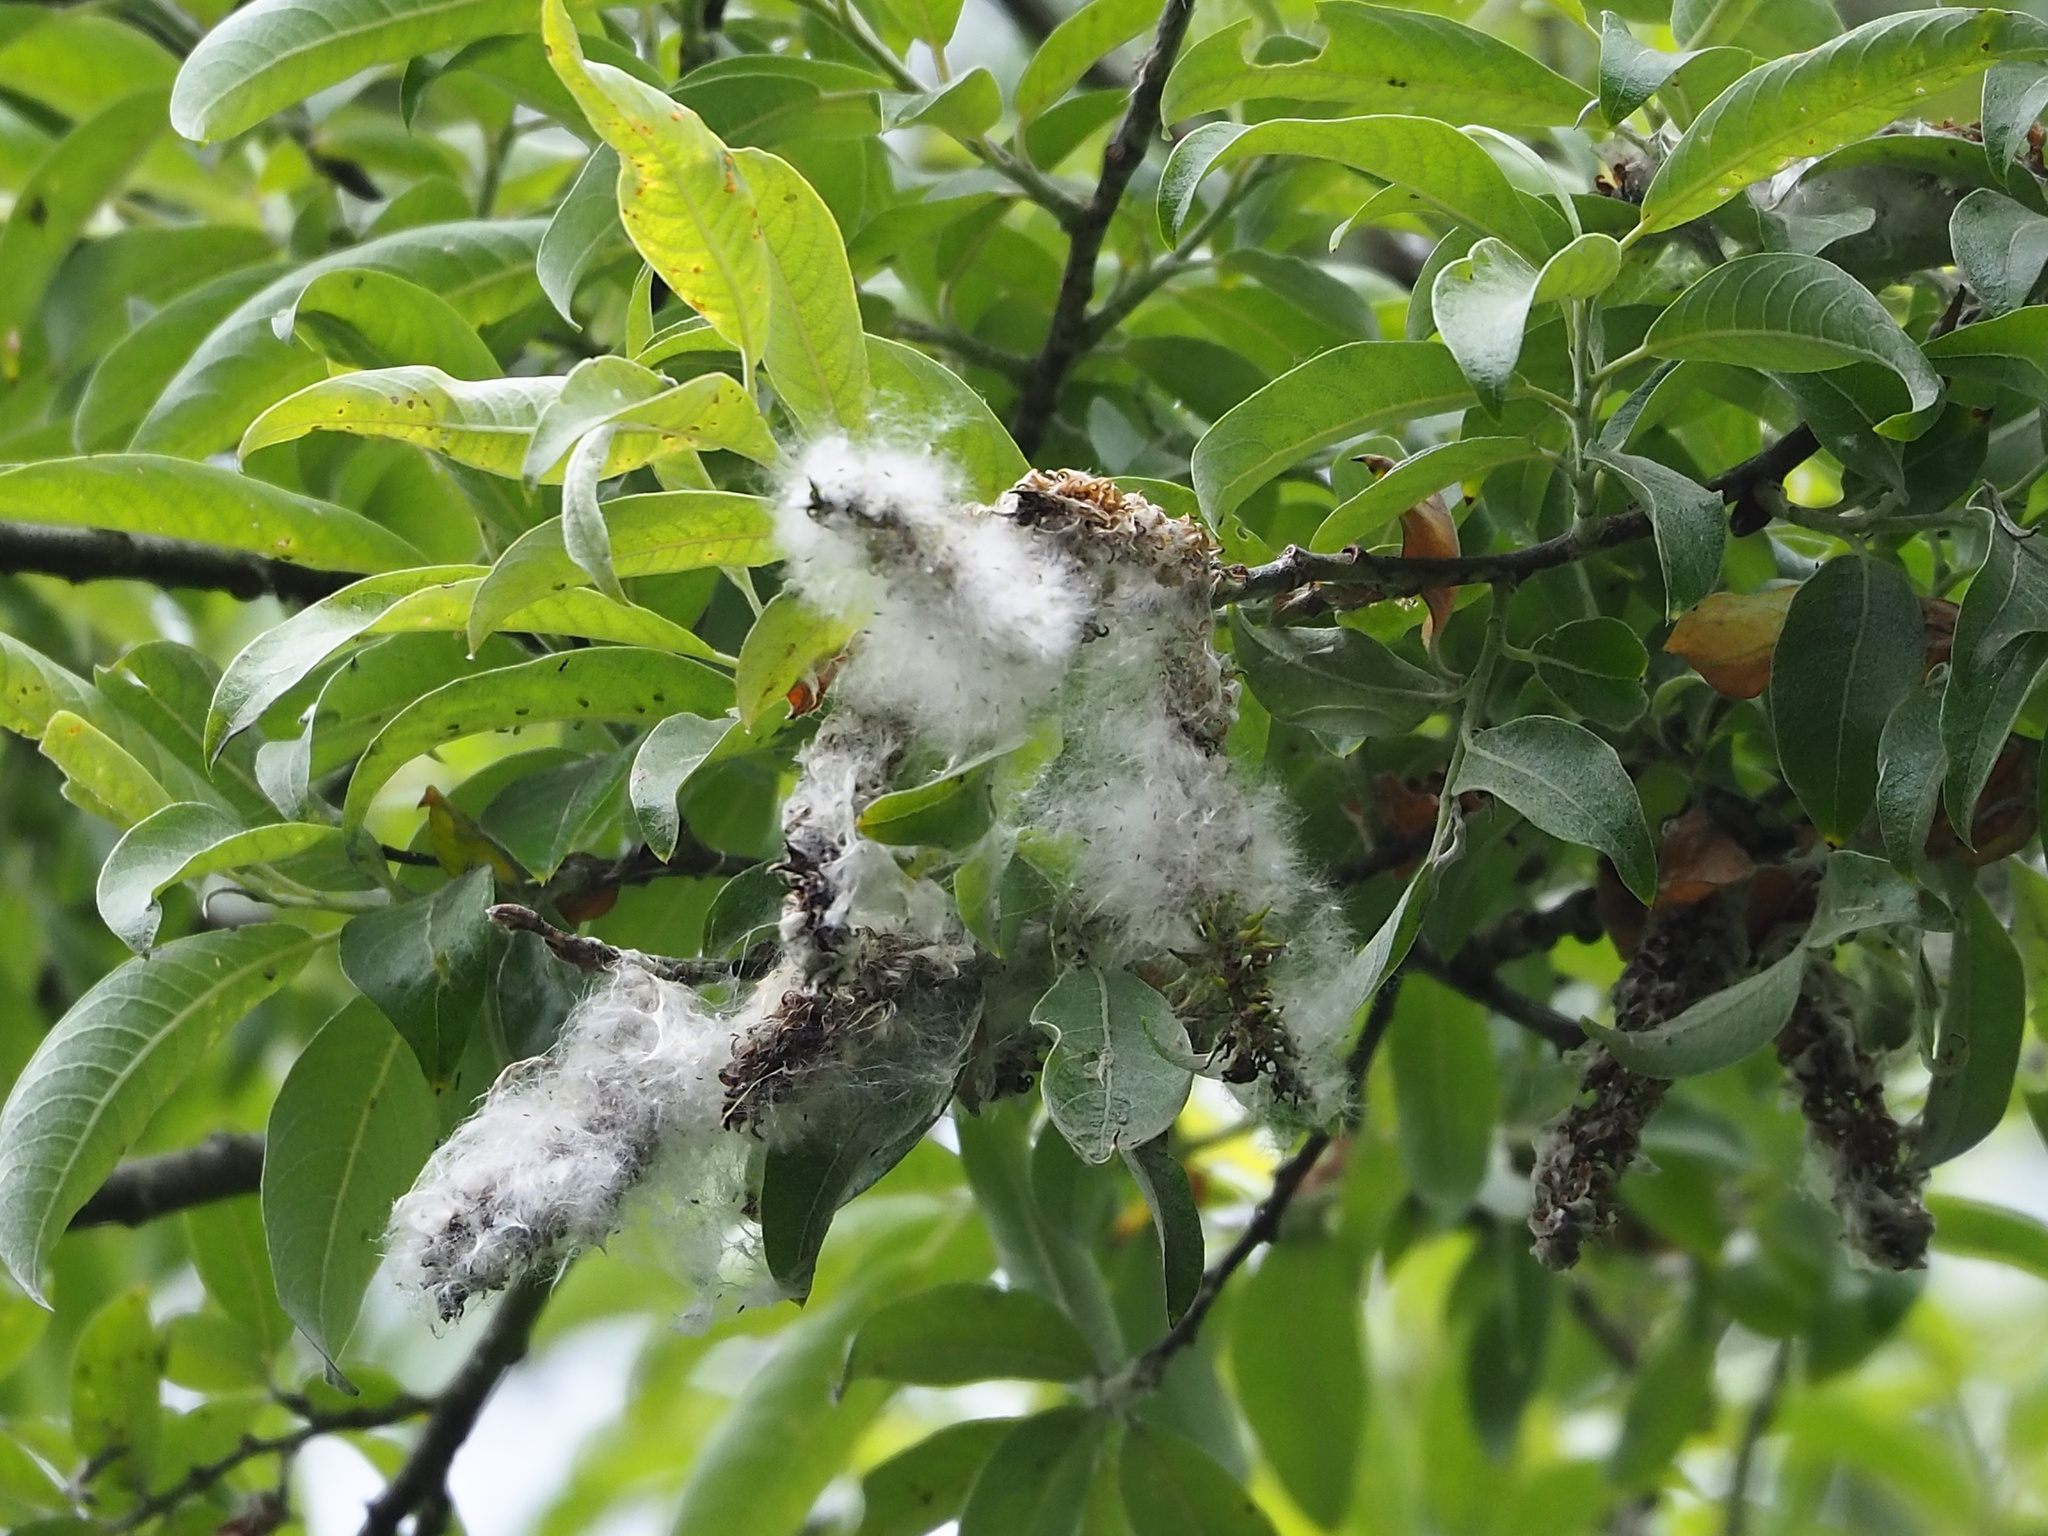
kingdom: Plantae
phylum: Tracheophyta
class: Magnoliopsida
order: Malpighiales
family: Salicaceae
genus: Salix
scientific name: Salix fulvopubescens
